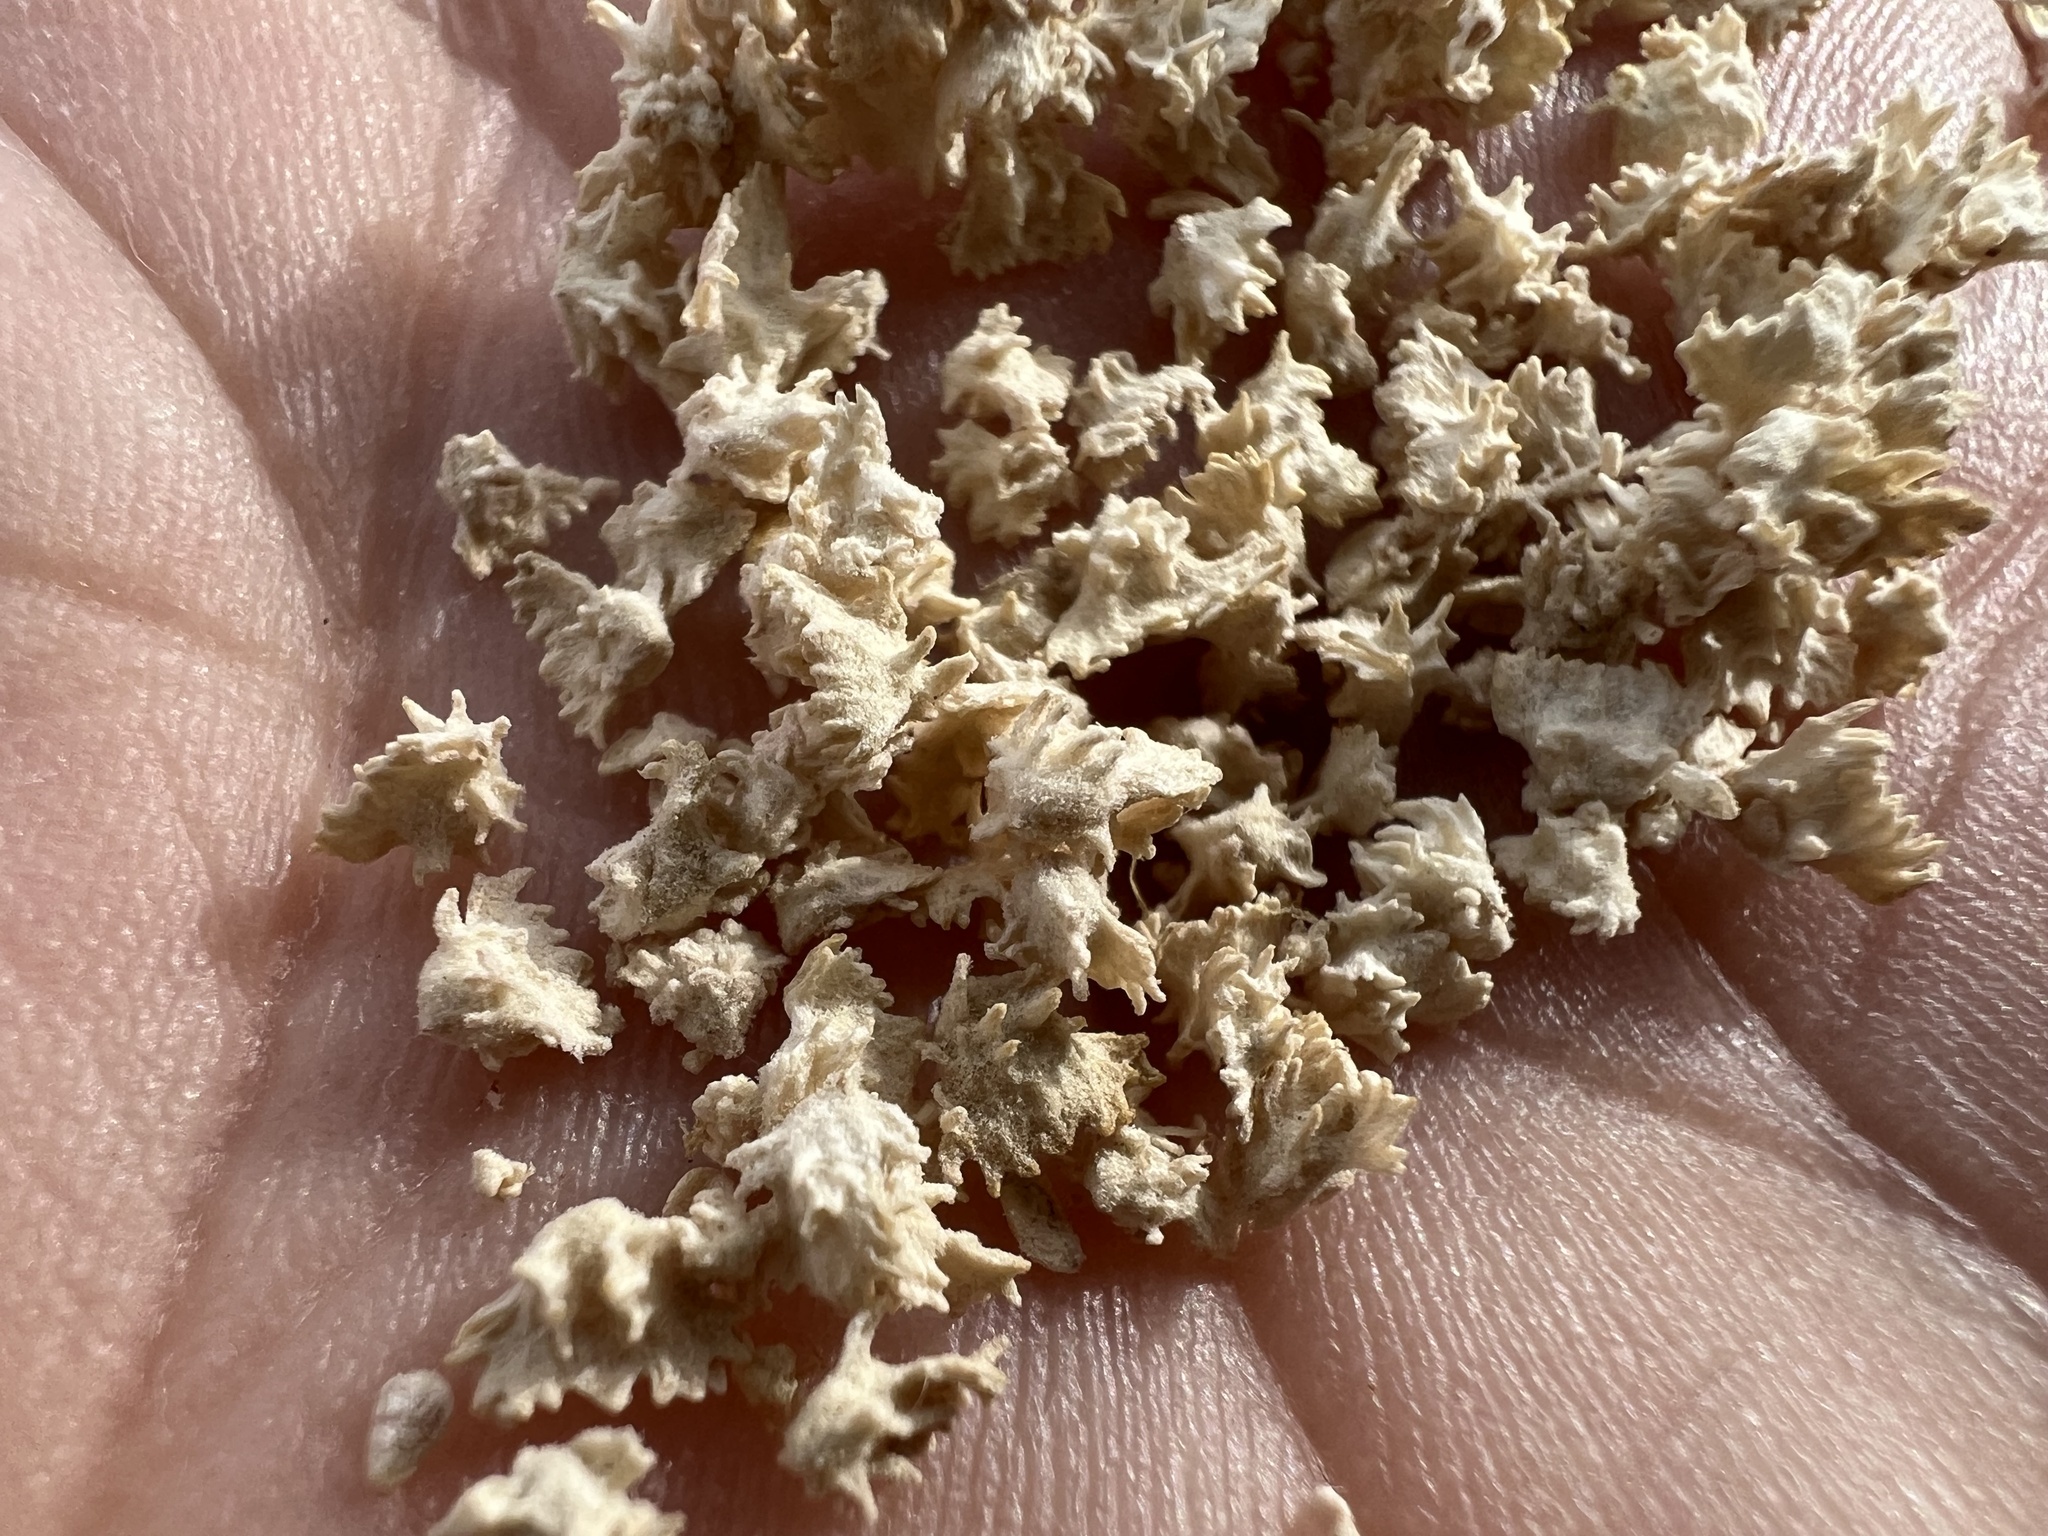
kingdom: Plantae
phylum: Tracheophyta
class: Magnoliopsida
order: Caryophyllales
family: Amaranthaceae
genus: Atriplex
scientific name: Atriplex polycarpa
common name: Desert saltbush
